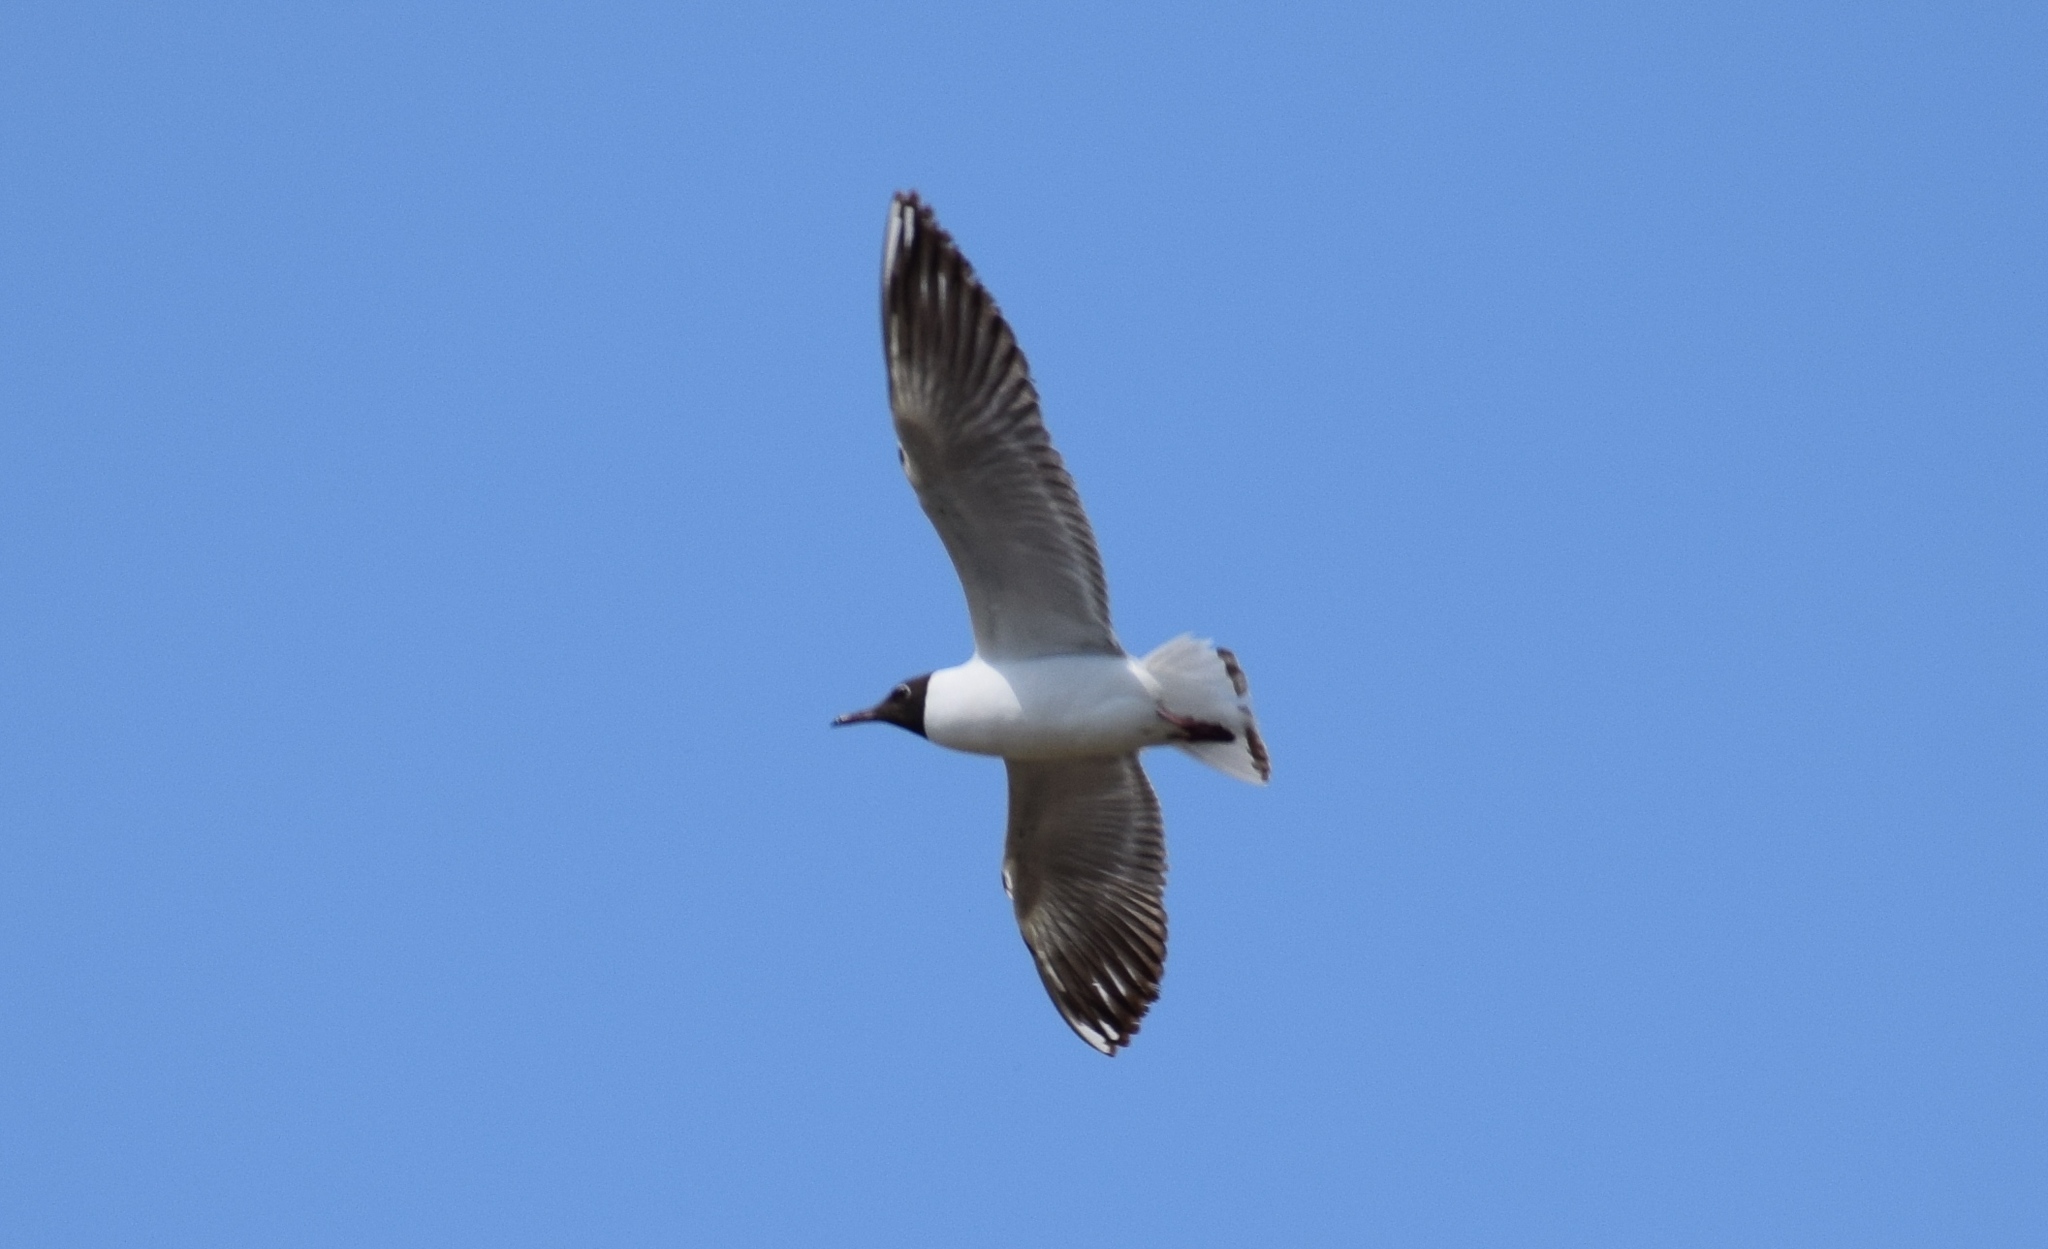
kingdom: Animalia
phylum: Chordata
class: Aves
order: Charadriiformes
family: Laridae
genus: Chroicocephalus
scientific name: Chroicocephalus ridibundus
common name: Black-headed gull
